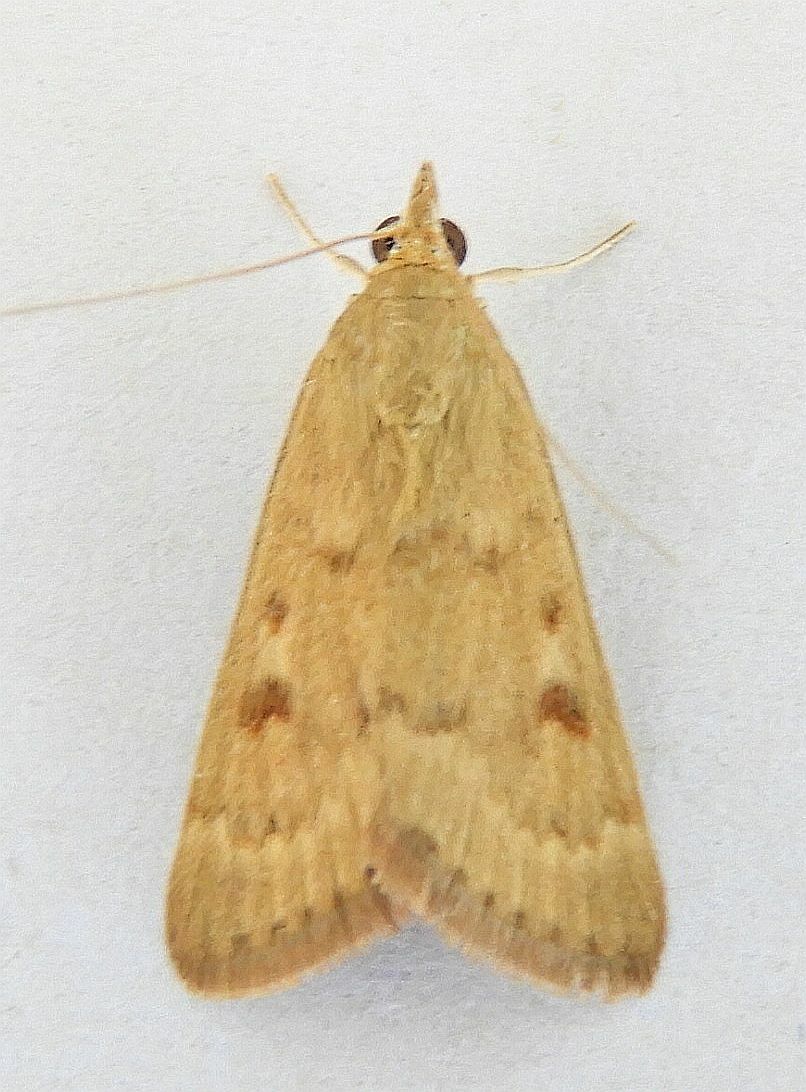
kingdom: Animalia
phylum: Arthropoda
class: Insecta
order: Lepidoptera
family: Crambidae
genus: Achyra
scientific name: Achyra rantalis
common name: Garden webworm
